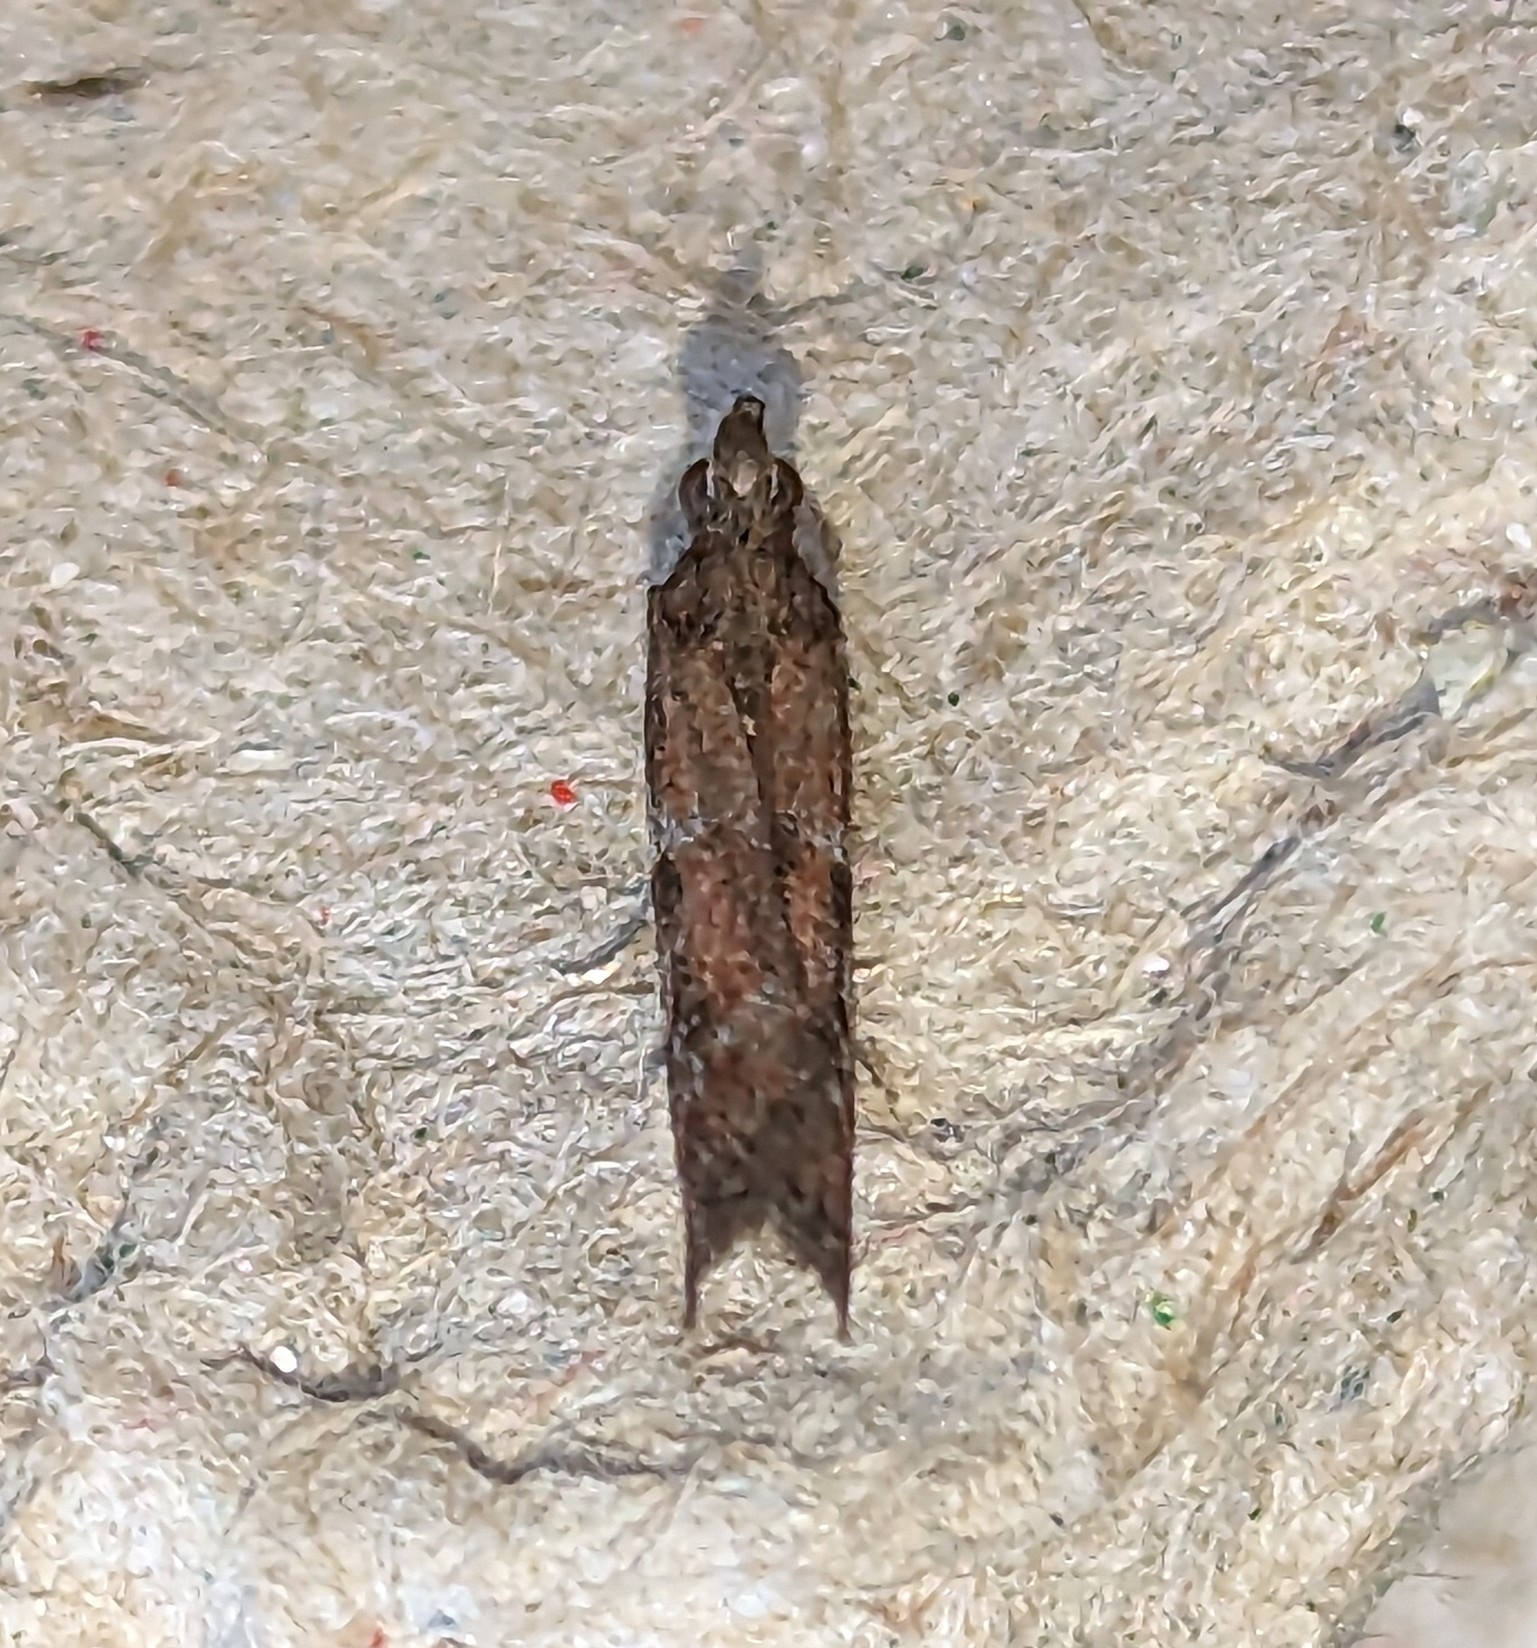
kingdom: Animalia
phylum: Arthropoda
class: Insecta
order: Lepidoptera
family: Pyralidae
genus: Ephestiodes
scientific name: Ephestiodes erythrella
